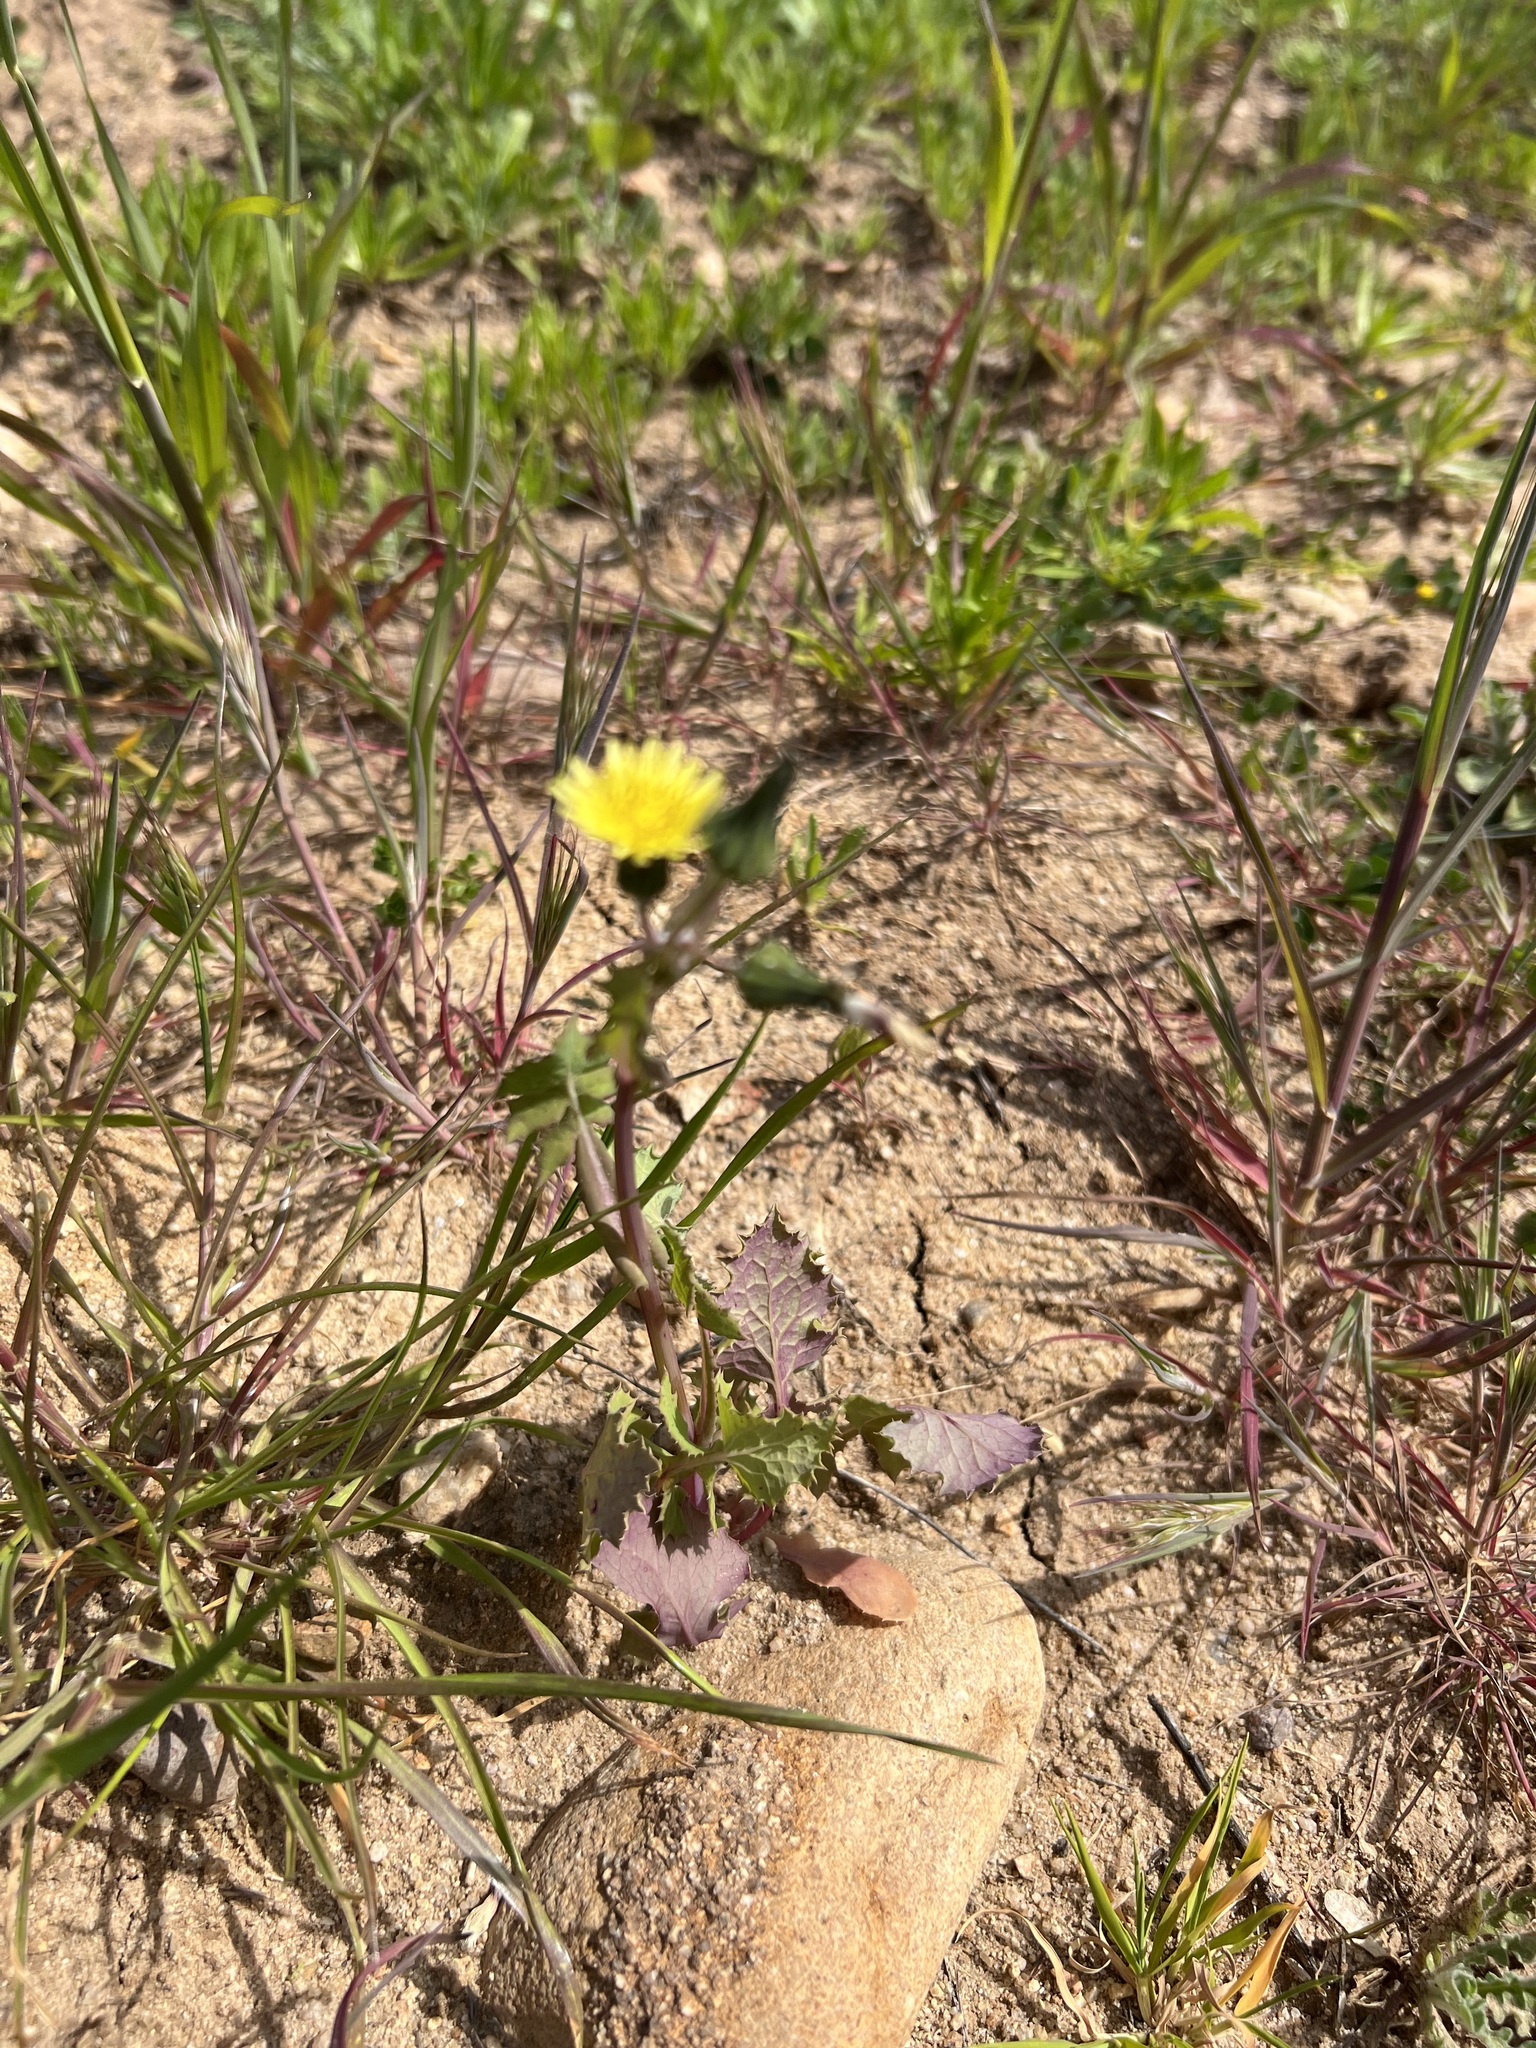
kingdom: Plantae
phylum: Tracheophyta
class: Magnoliopsida
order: Asterales
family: Asteraceae
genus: Sonchus
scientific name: Sonchus oleraceus
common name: Common sowthistle
